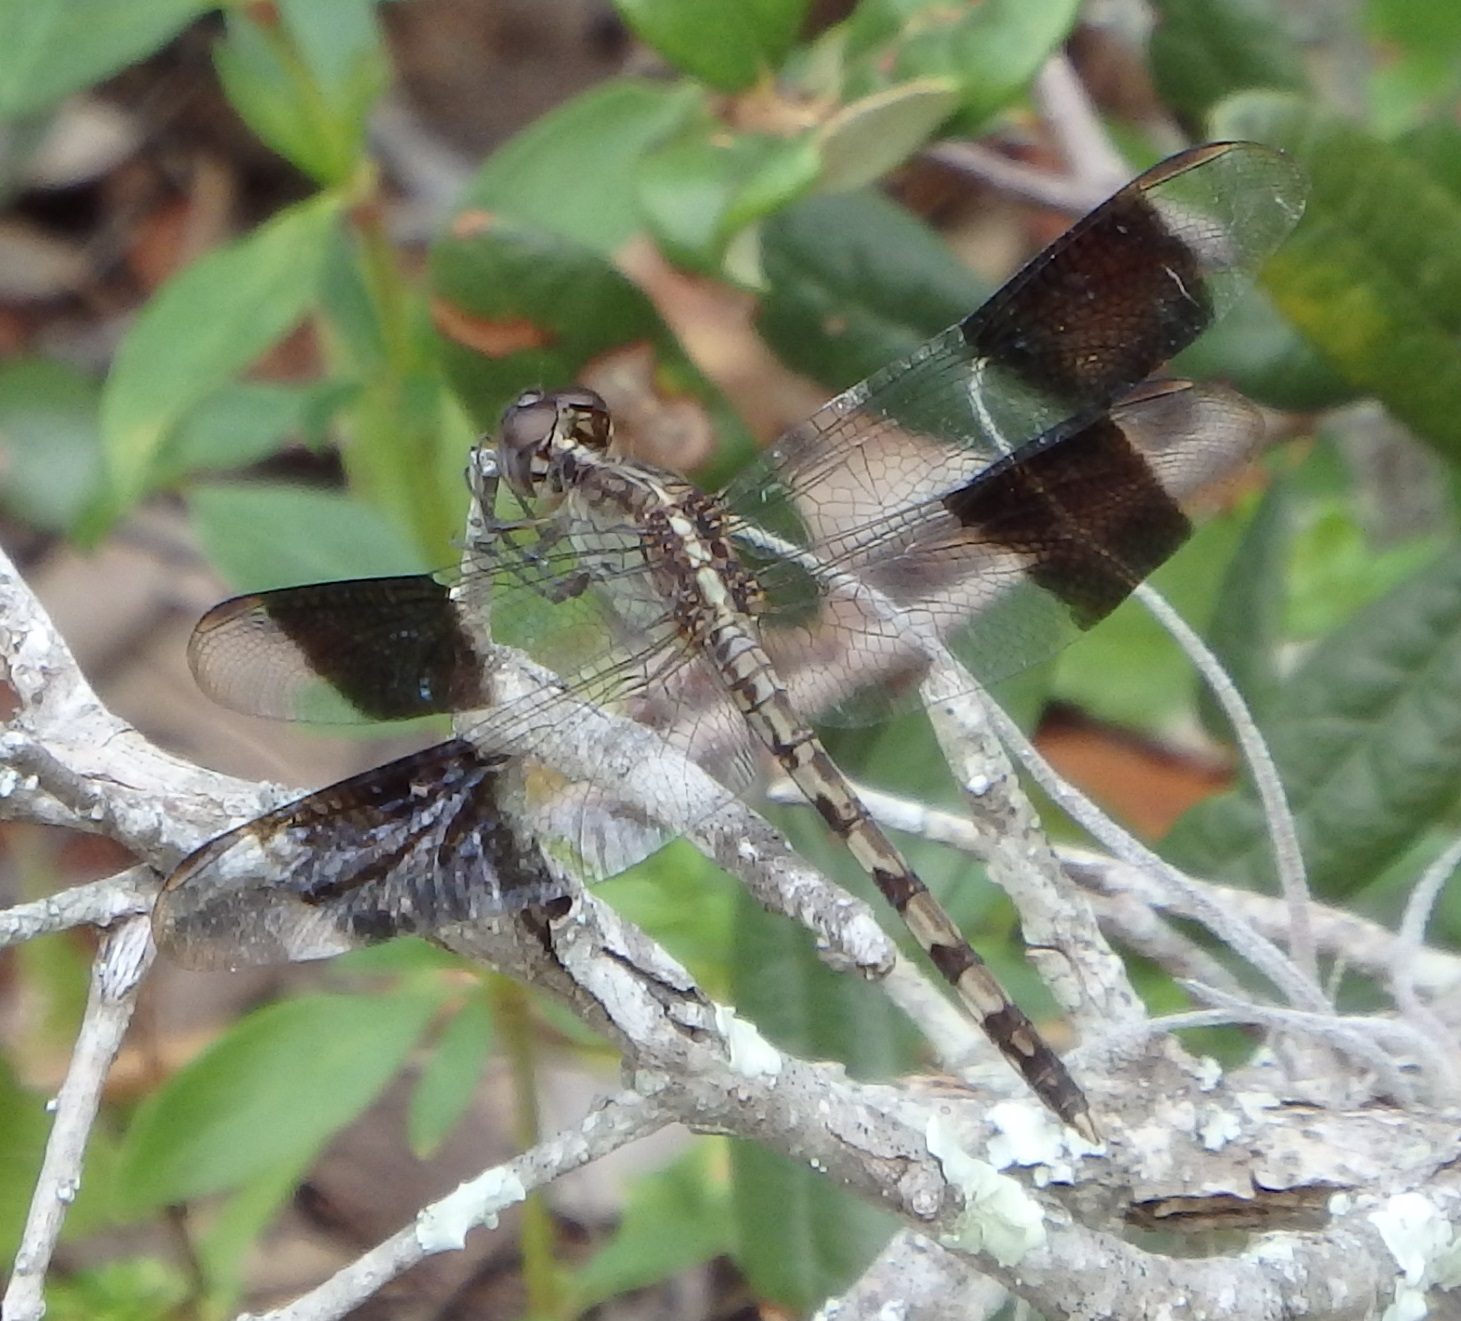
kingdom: Animalia
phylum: Arthropoda
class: Insecta
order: Odonata
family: Libellulidae
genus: Erythrodiplax
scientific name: Erythrodiplax umbrata
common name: Band-winged dragonlet
